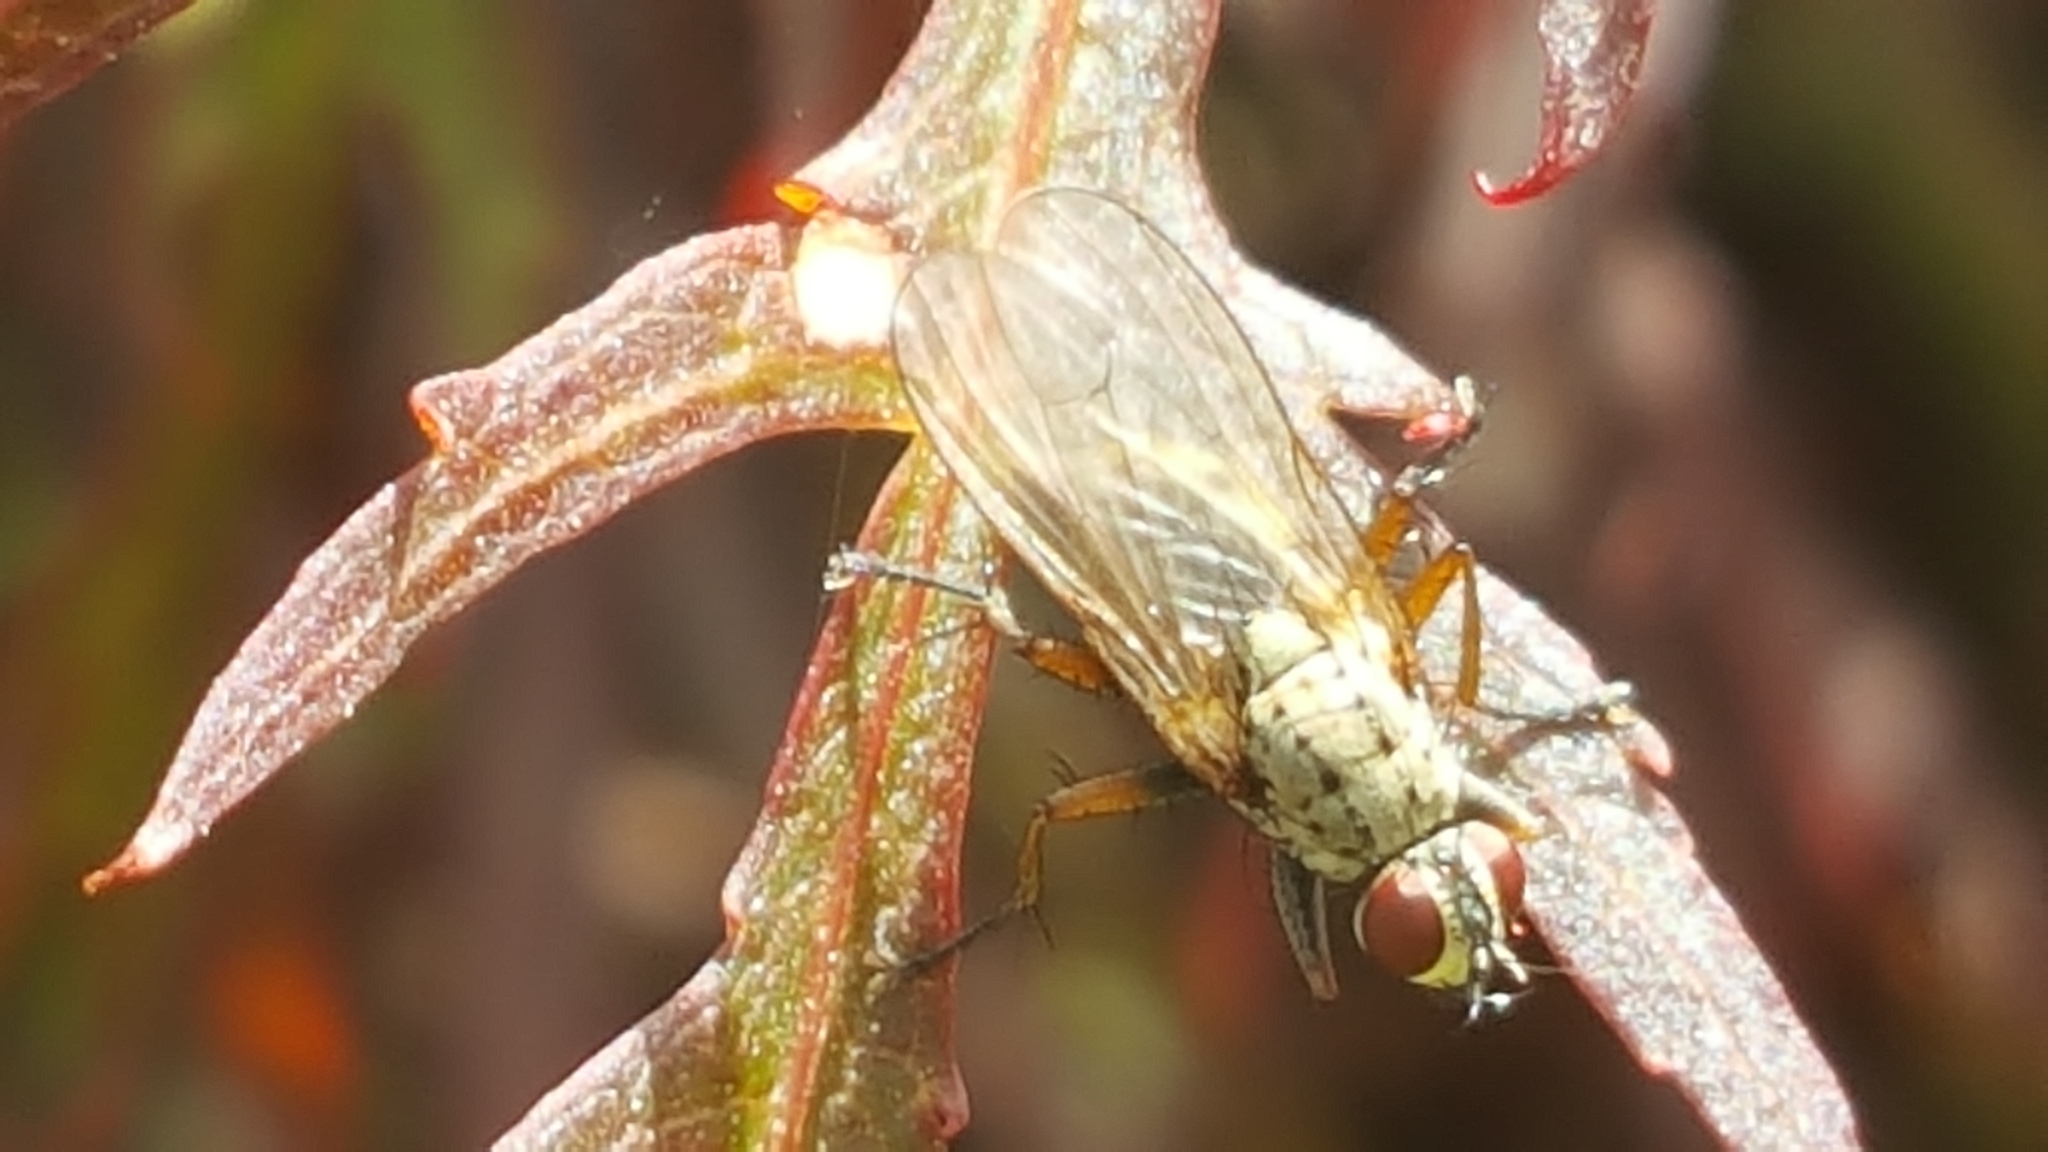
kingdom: Animalia
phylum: Arthropoda
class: Insecta
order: Diptera
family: Muscidae
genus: Coenosia
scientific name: Coenosia tigrina
